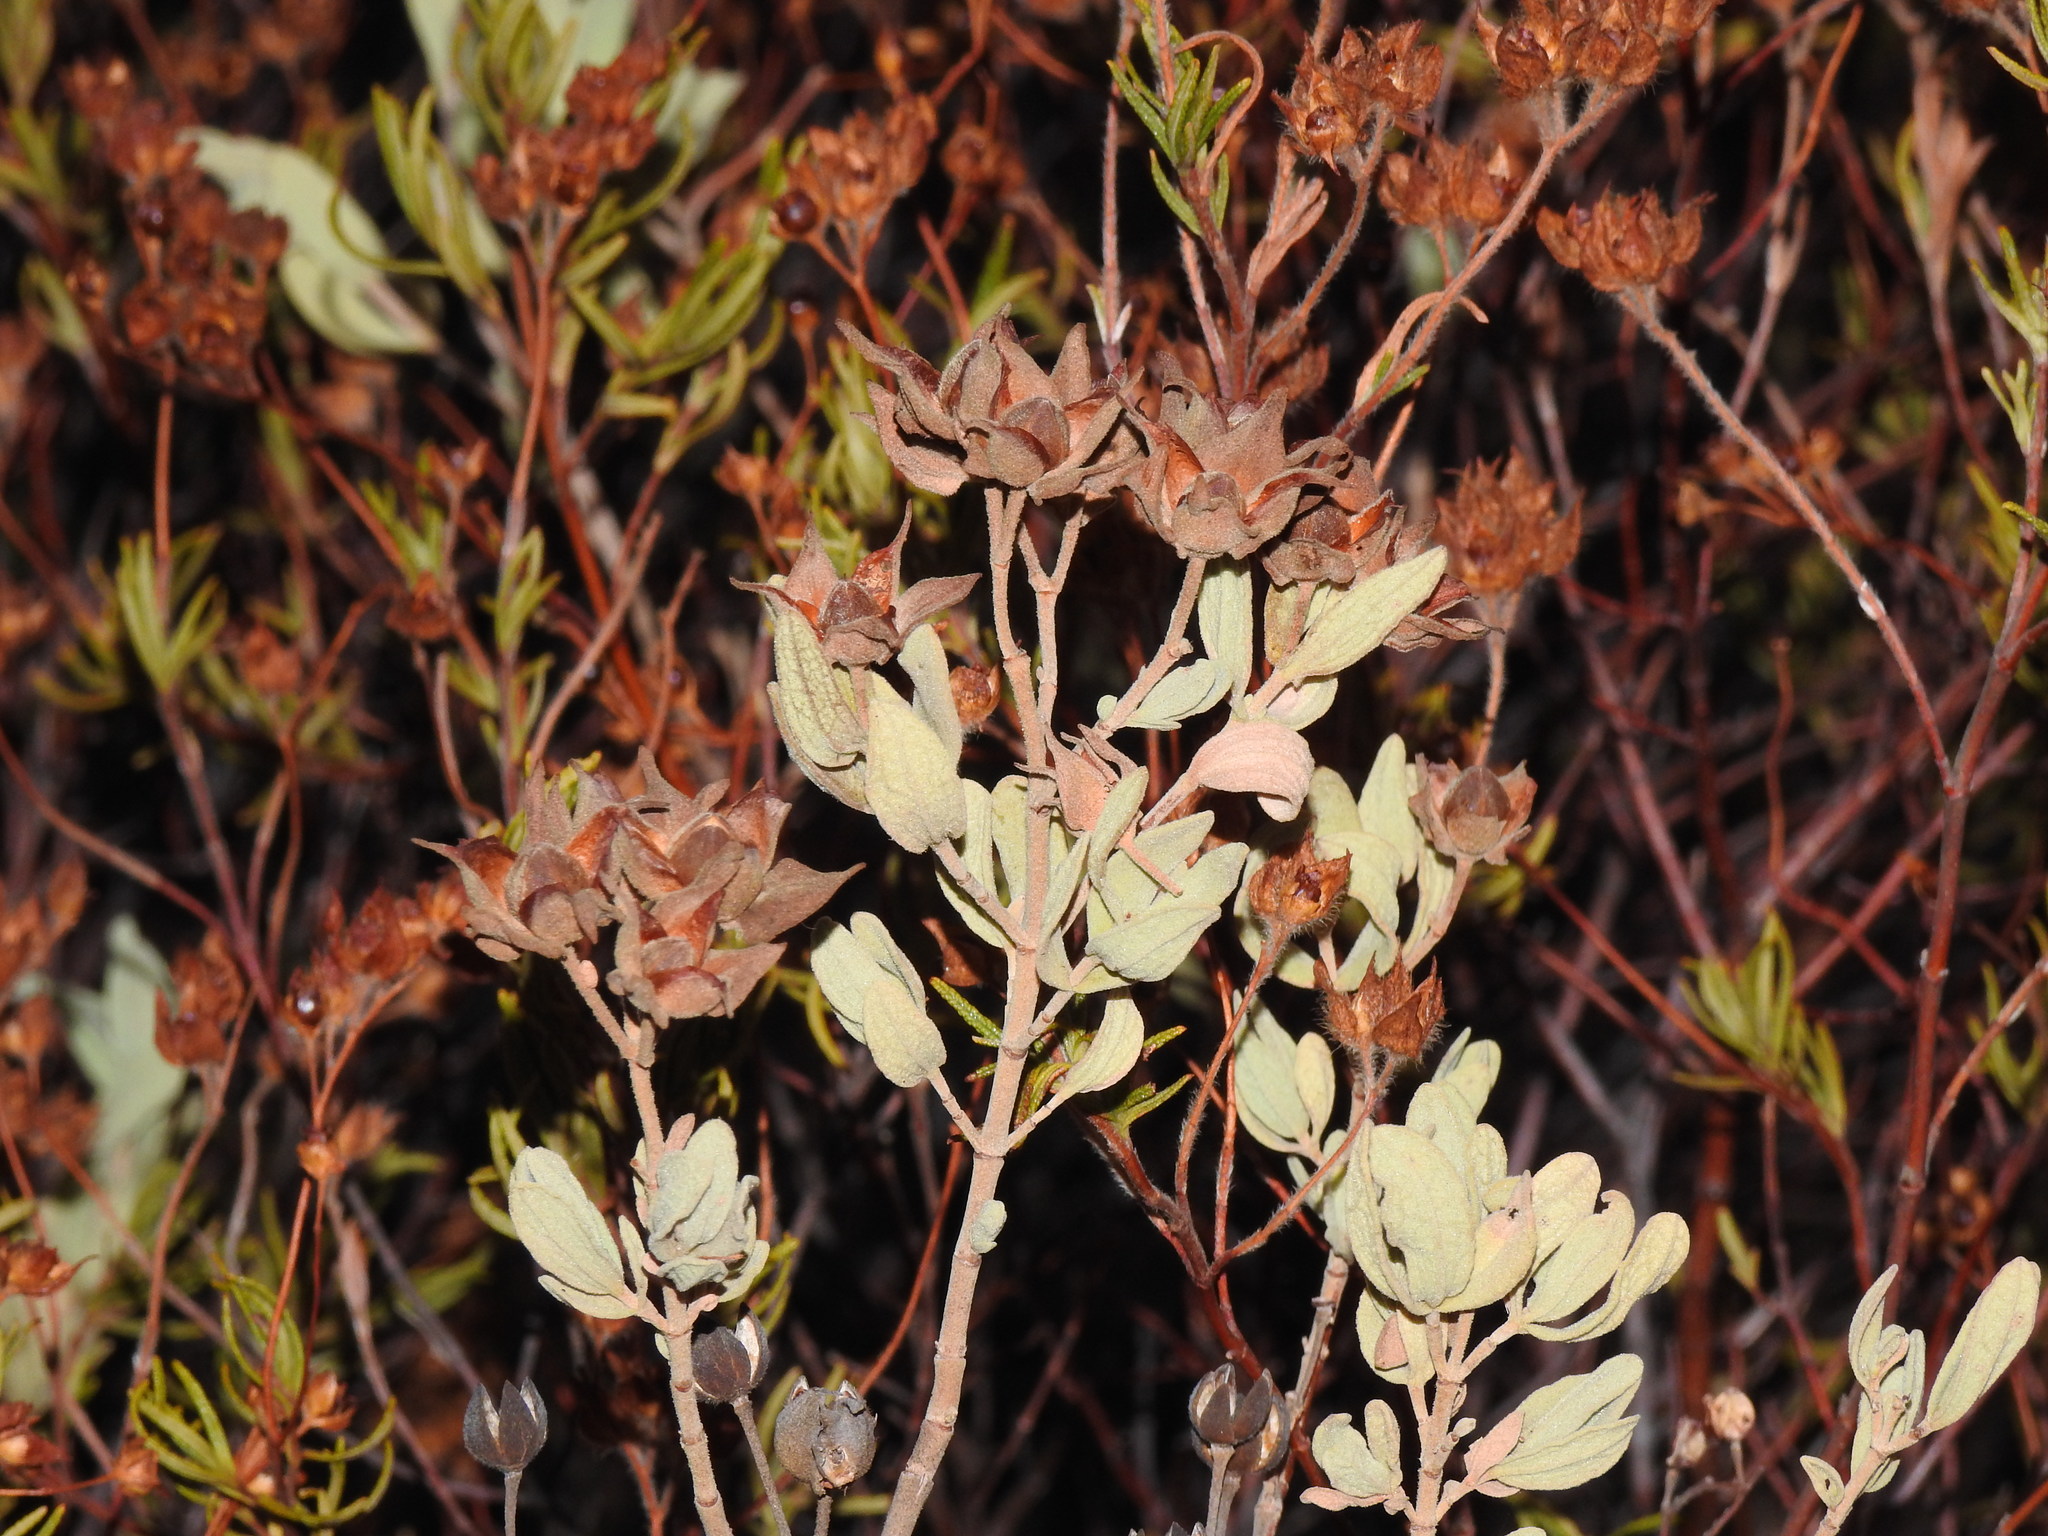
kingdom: Plantae
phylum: Tracheophyta
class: Magnoliopsida
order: Malvales
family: Cistaceae
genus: Cistus
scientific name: Cistus albidus
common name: White-leaf rock-rose
